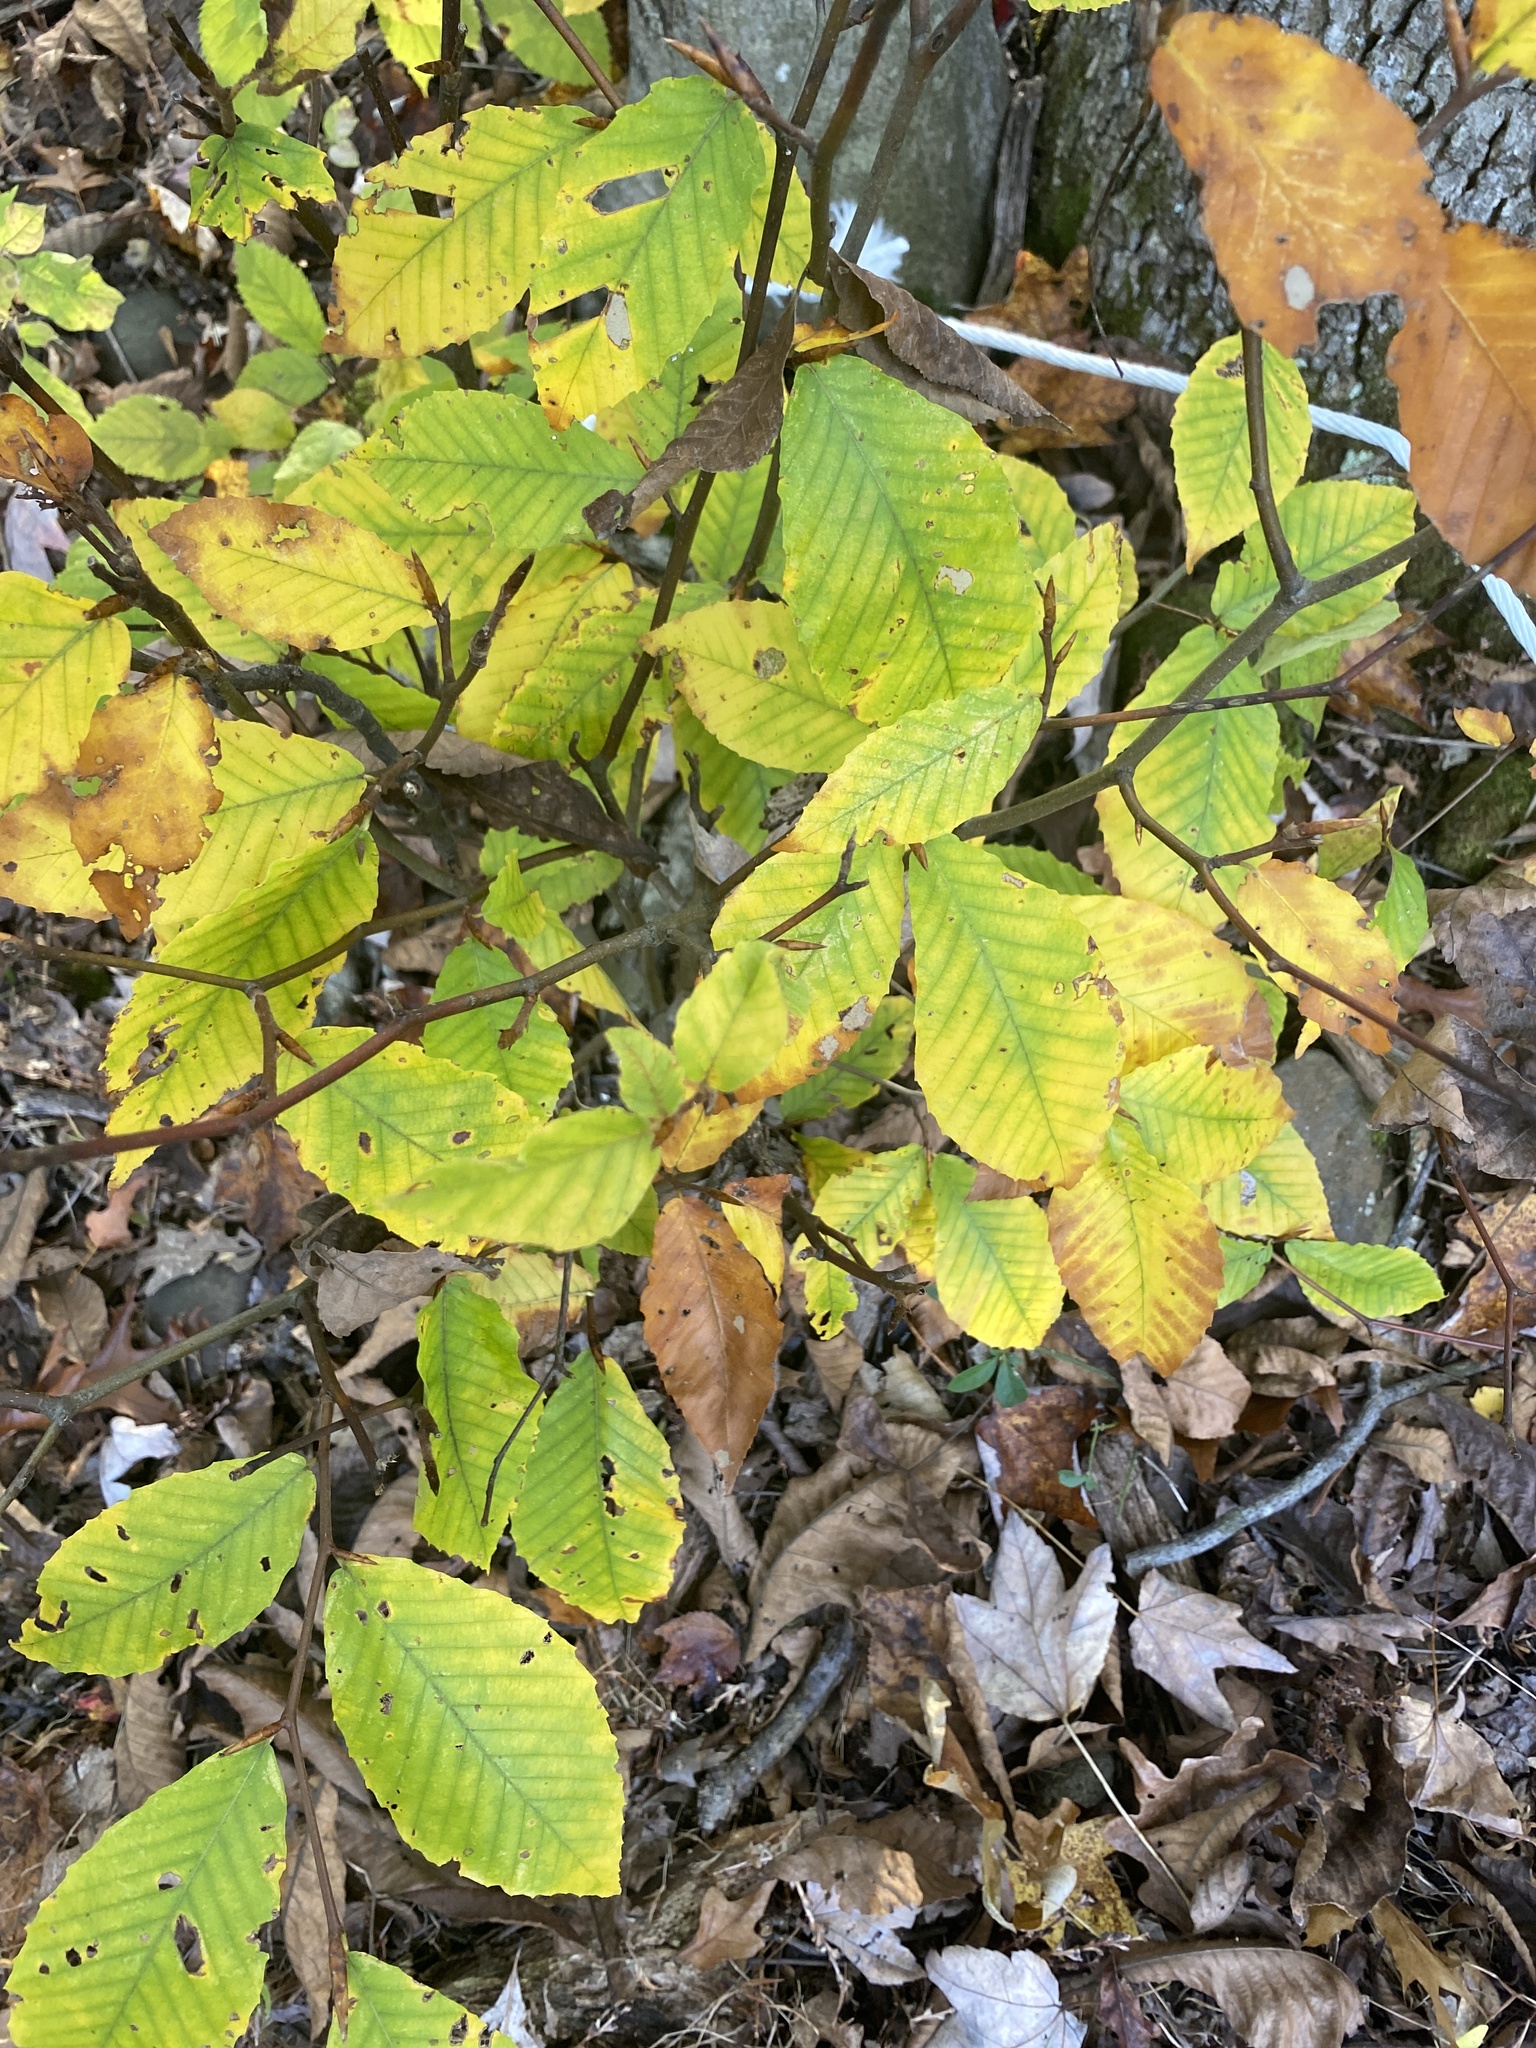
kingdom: Plantae
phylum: Tracheophyta
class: Magnoliopsida
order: Fagales
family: Fagaceae
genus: Fagus
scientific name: Fagus grandifolia
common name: American beech
